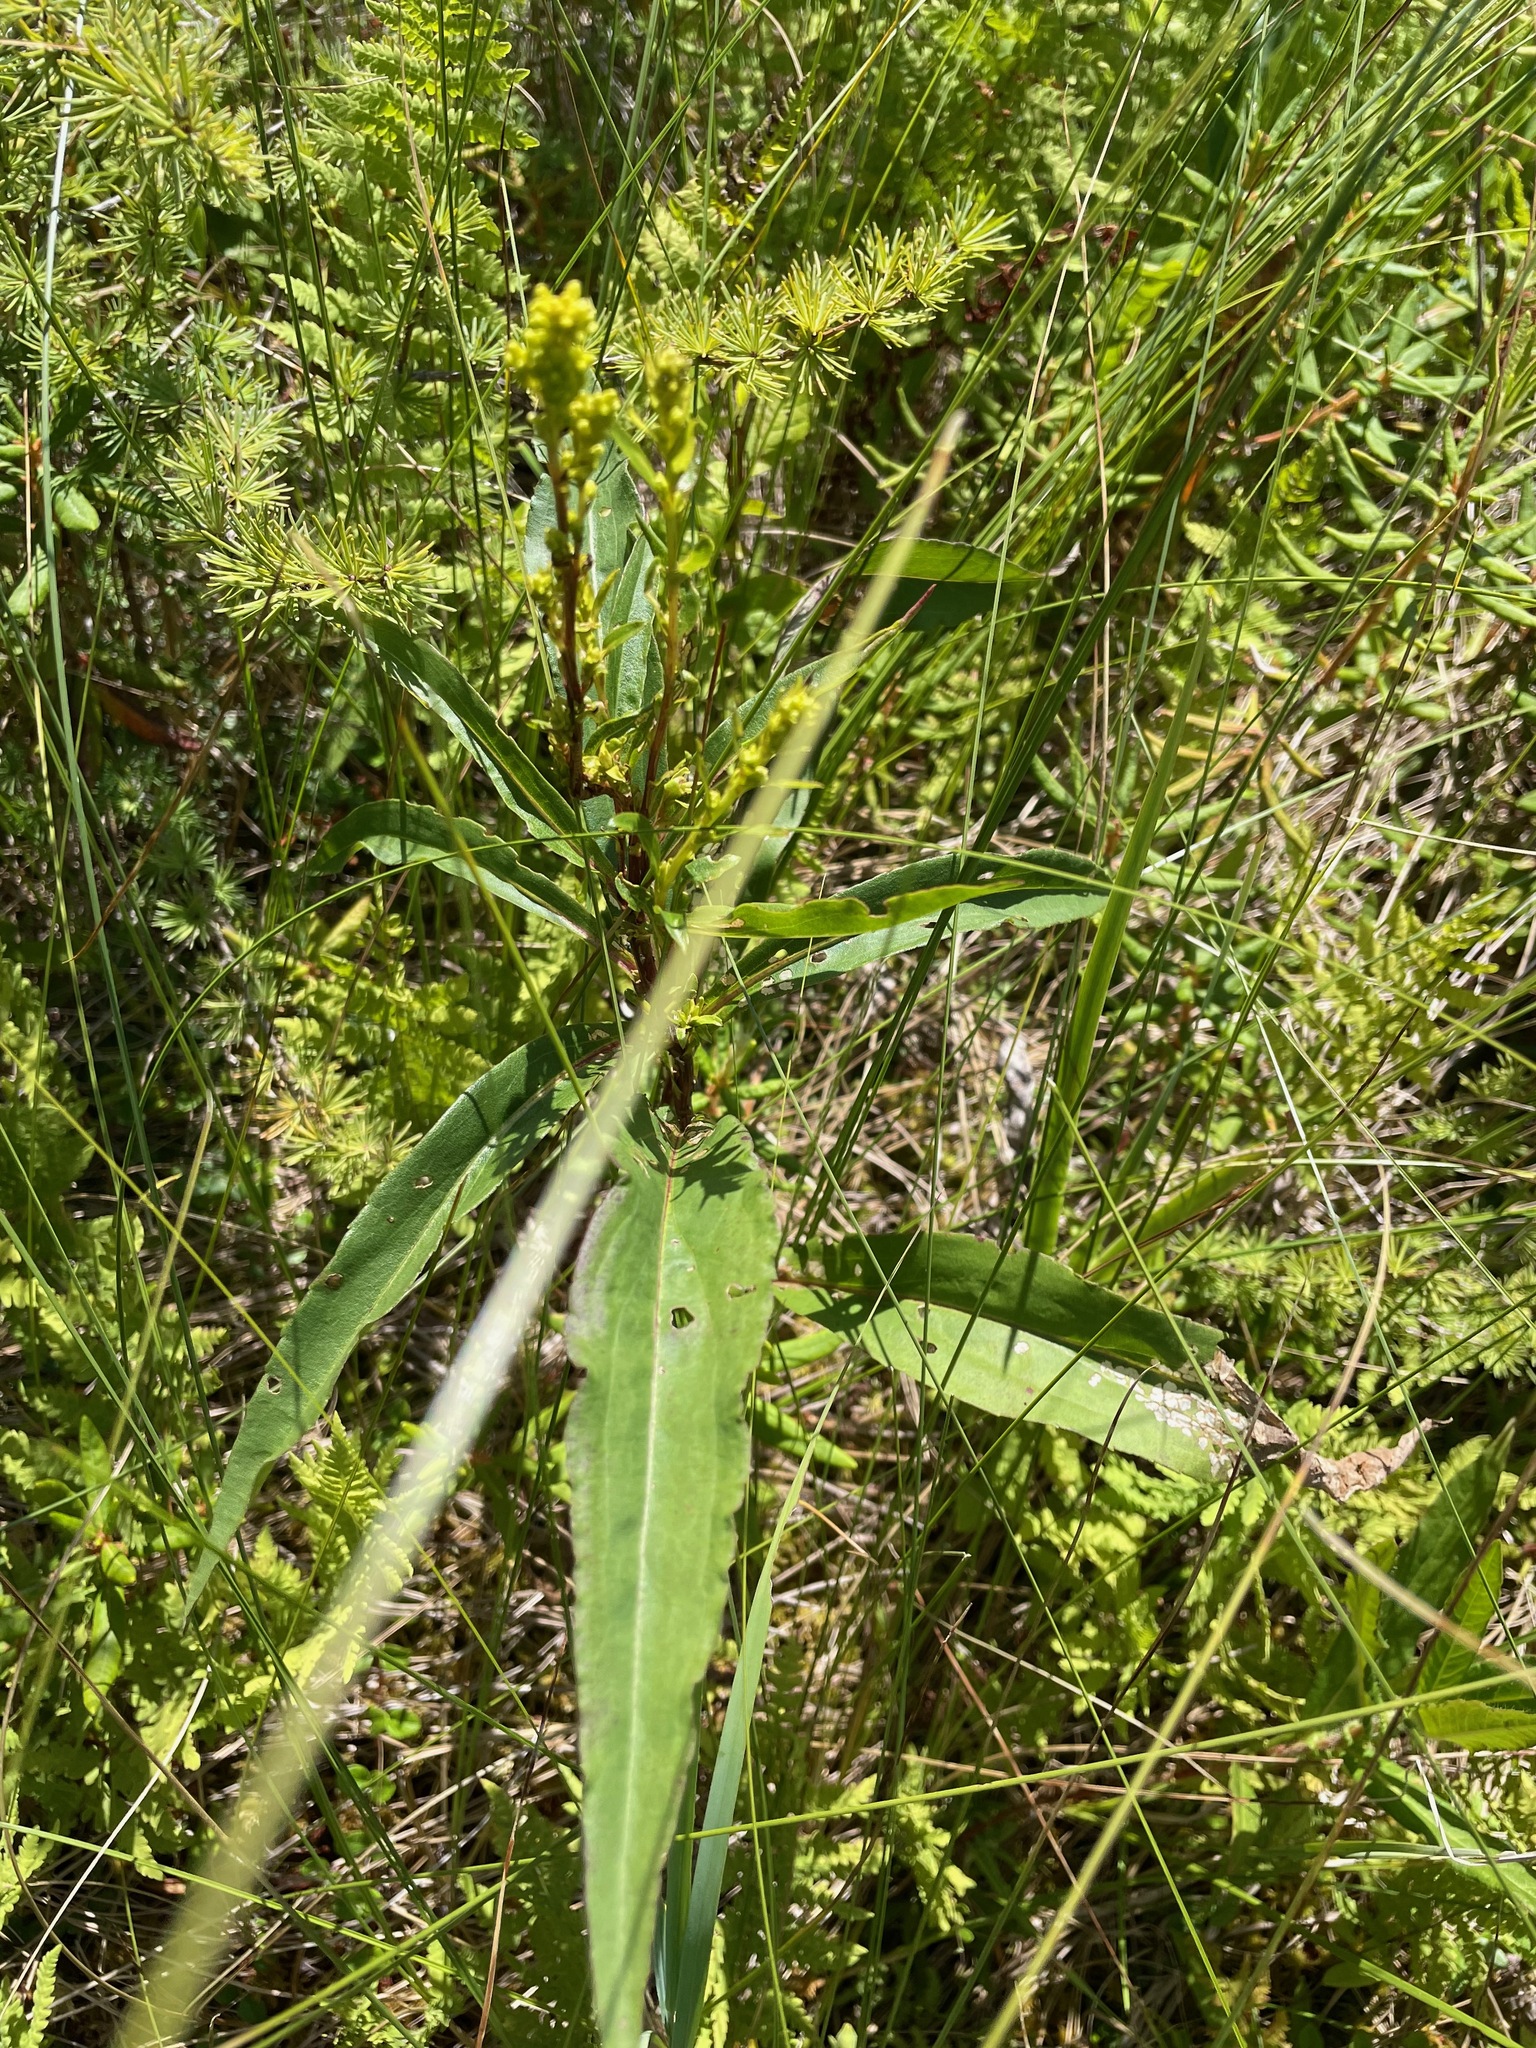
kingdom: Plantae
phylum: Tracheophyta
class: Magnoliopsida
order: Asterales
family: Asteraceae
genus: Solidago
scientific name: Solidago uliginosa
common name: Bog goldenrod
